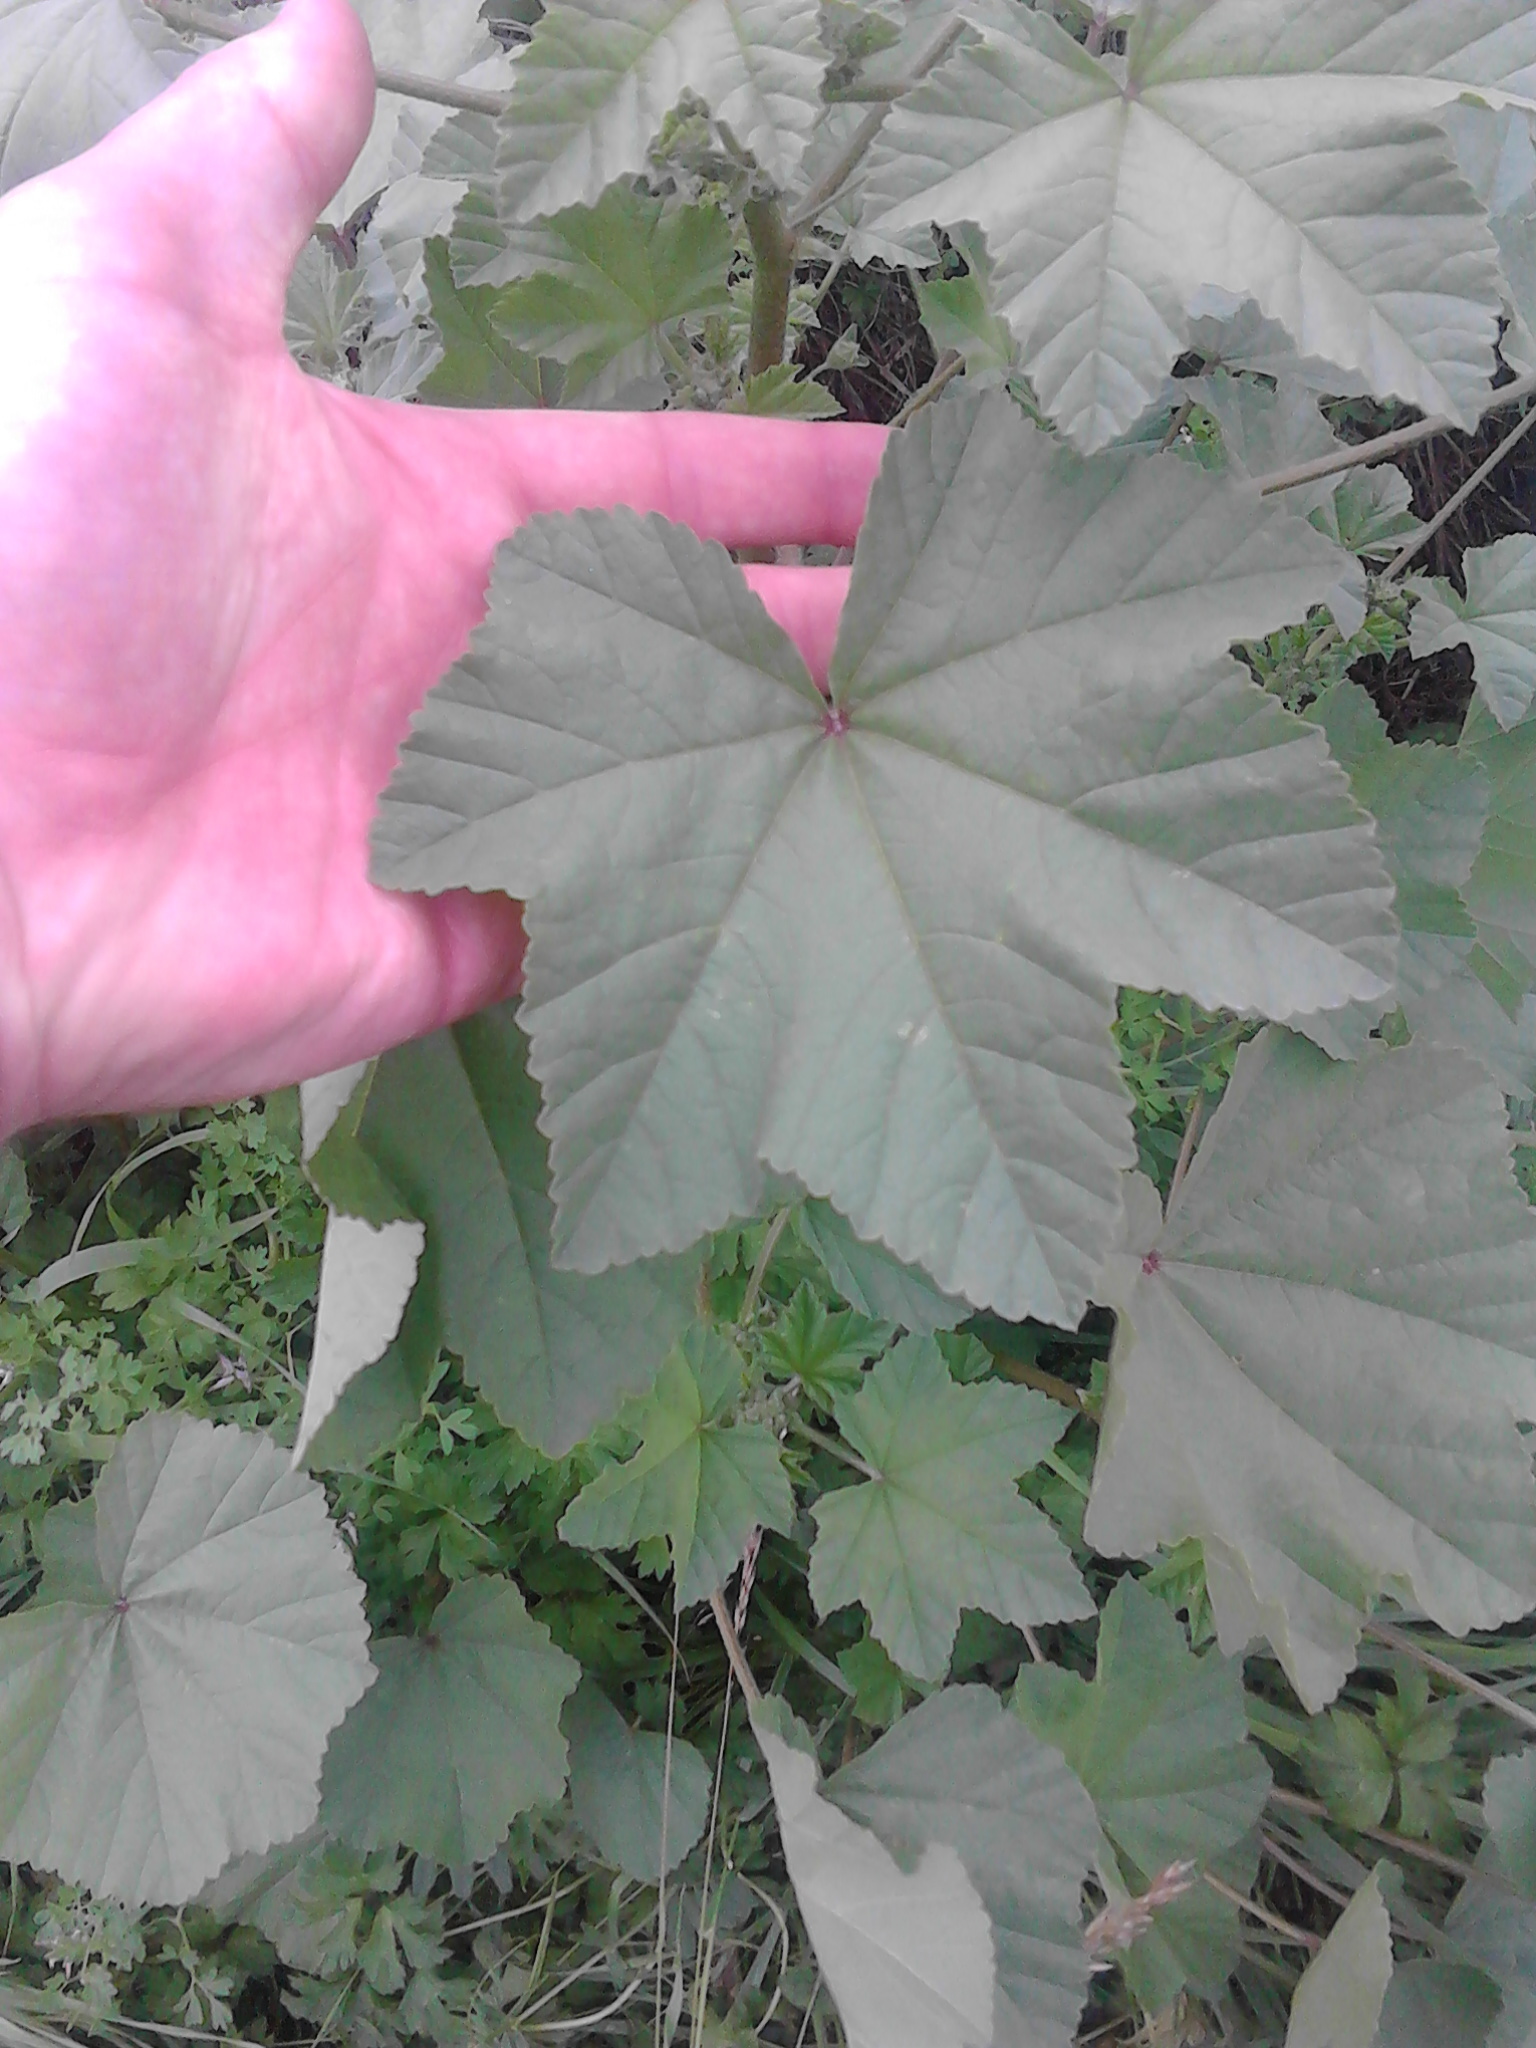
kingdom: Plantae
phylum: Tracheophyta
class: Magnoliopsida
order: Malvales
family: Malvaceae
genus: Malva
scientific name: Malva arborea
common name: Tree mallow
